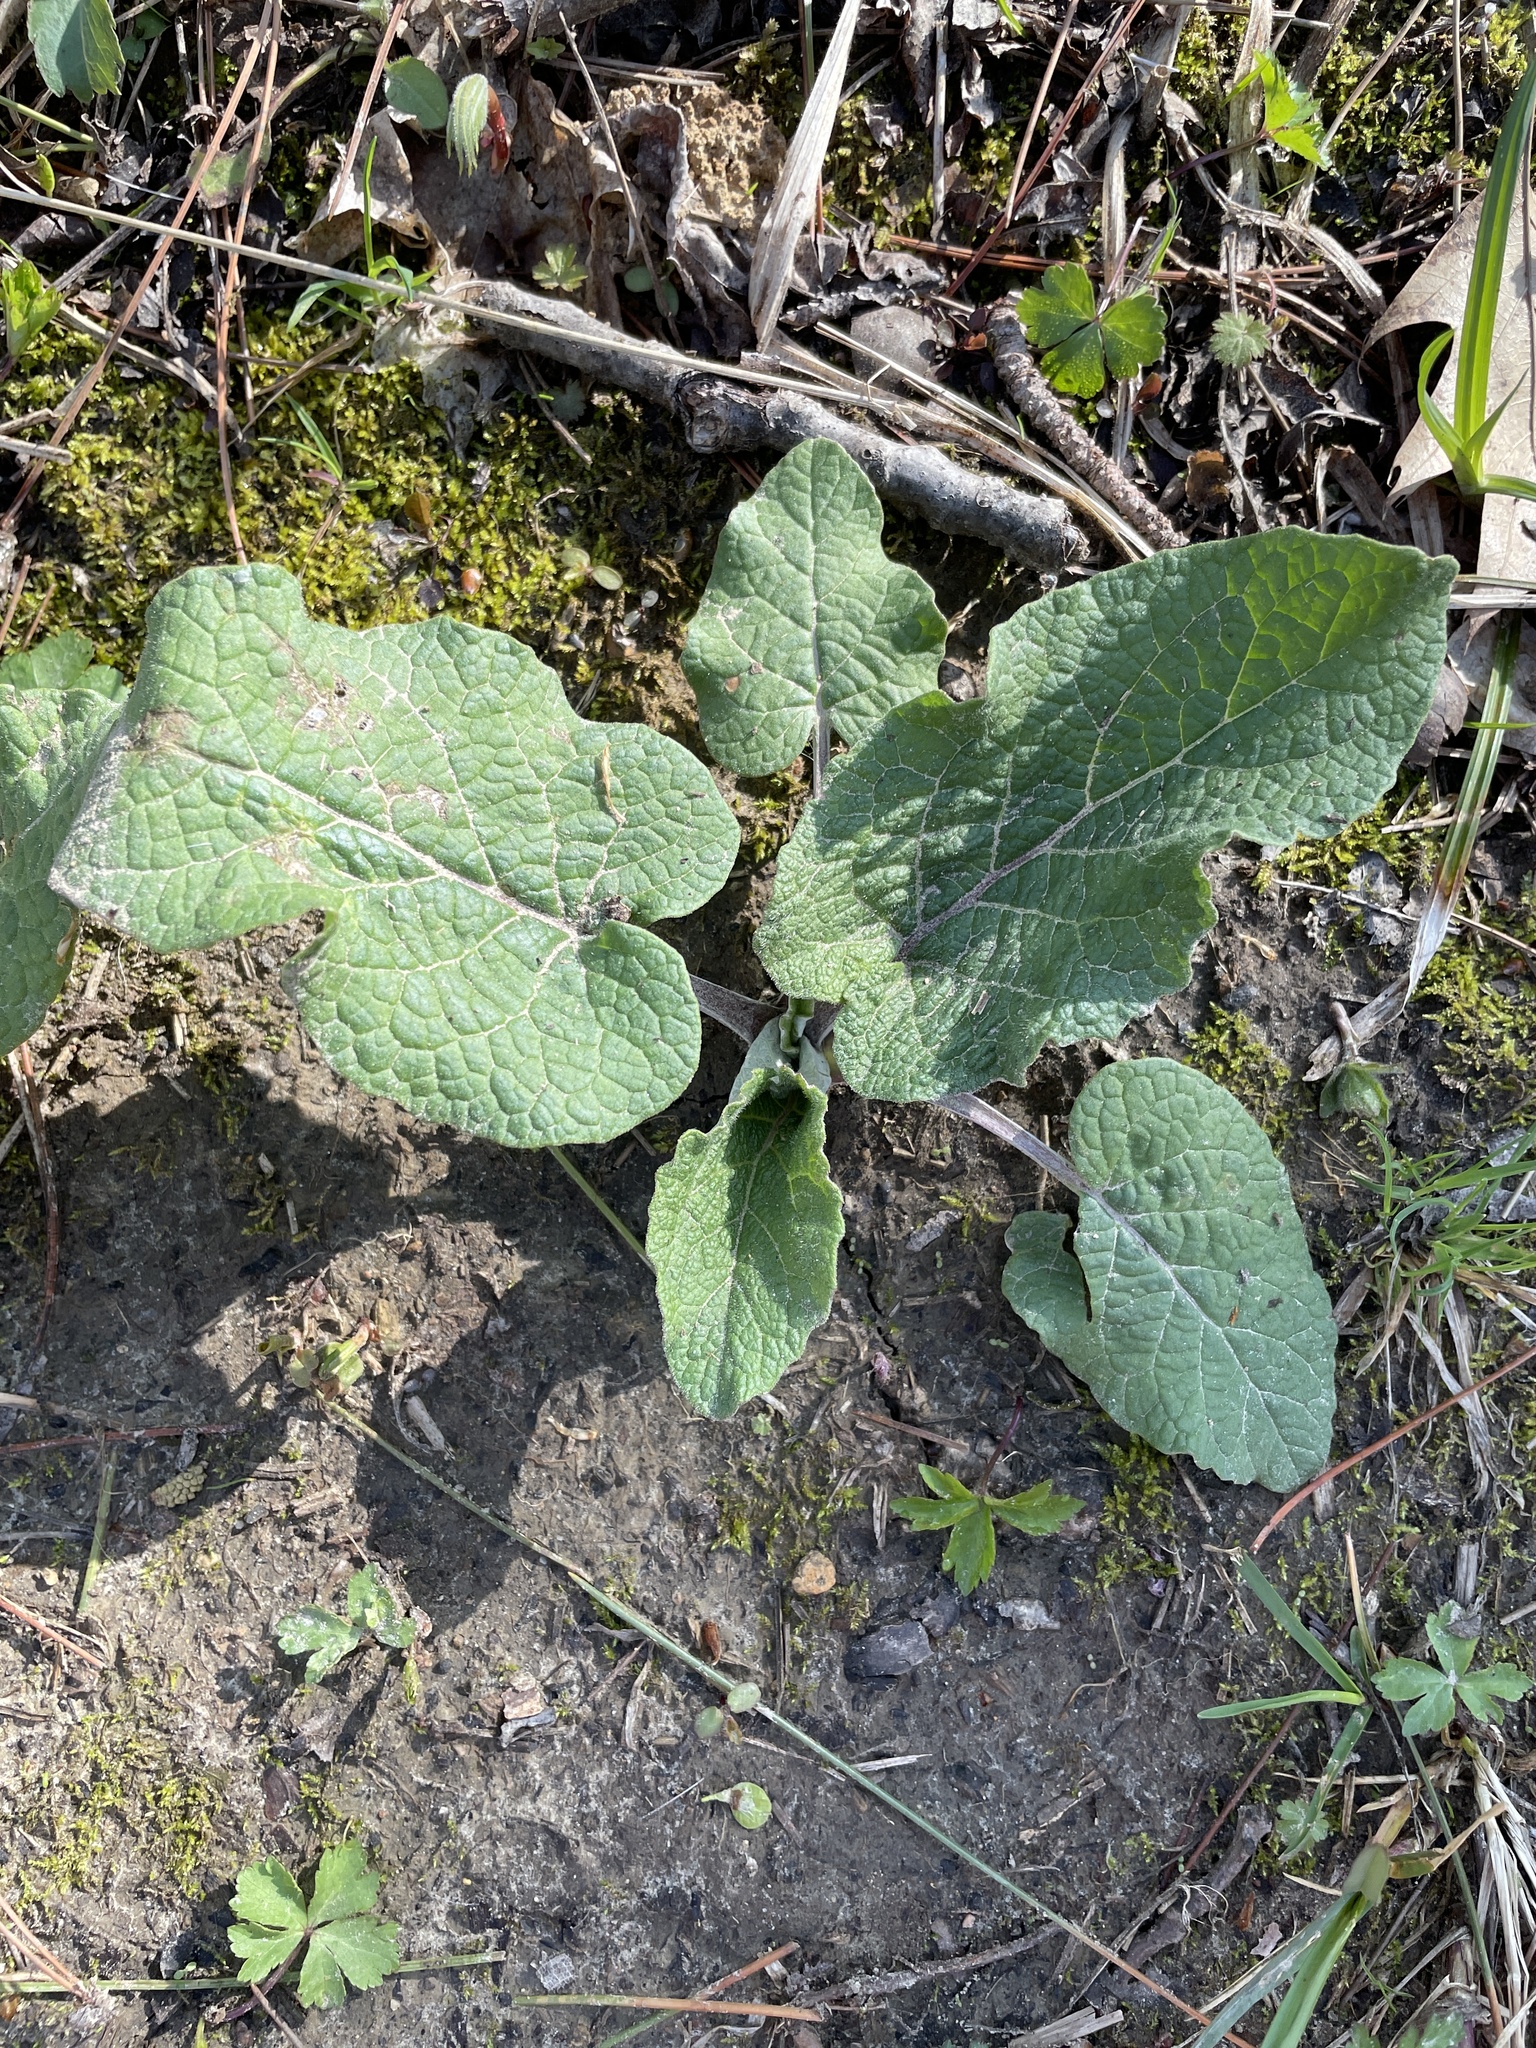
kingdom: Plantae
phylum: Tracheophyta
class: Magnoliopsida
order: Asterales
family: Asteraceae
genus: Arctium
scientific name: Arctium lappa
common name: Greater burdock
